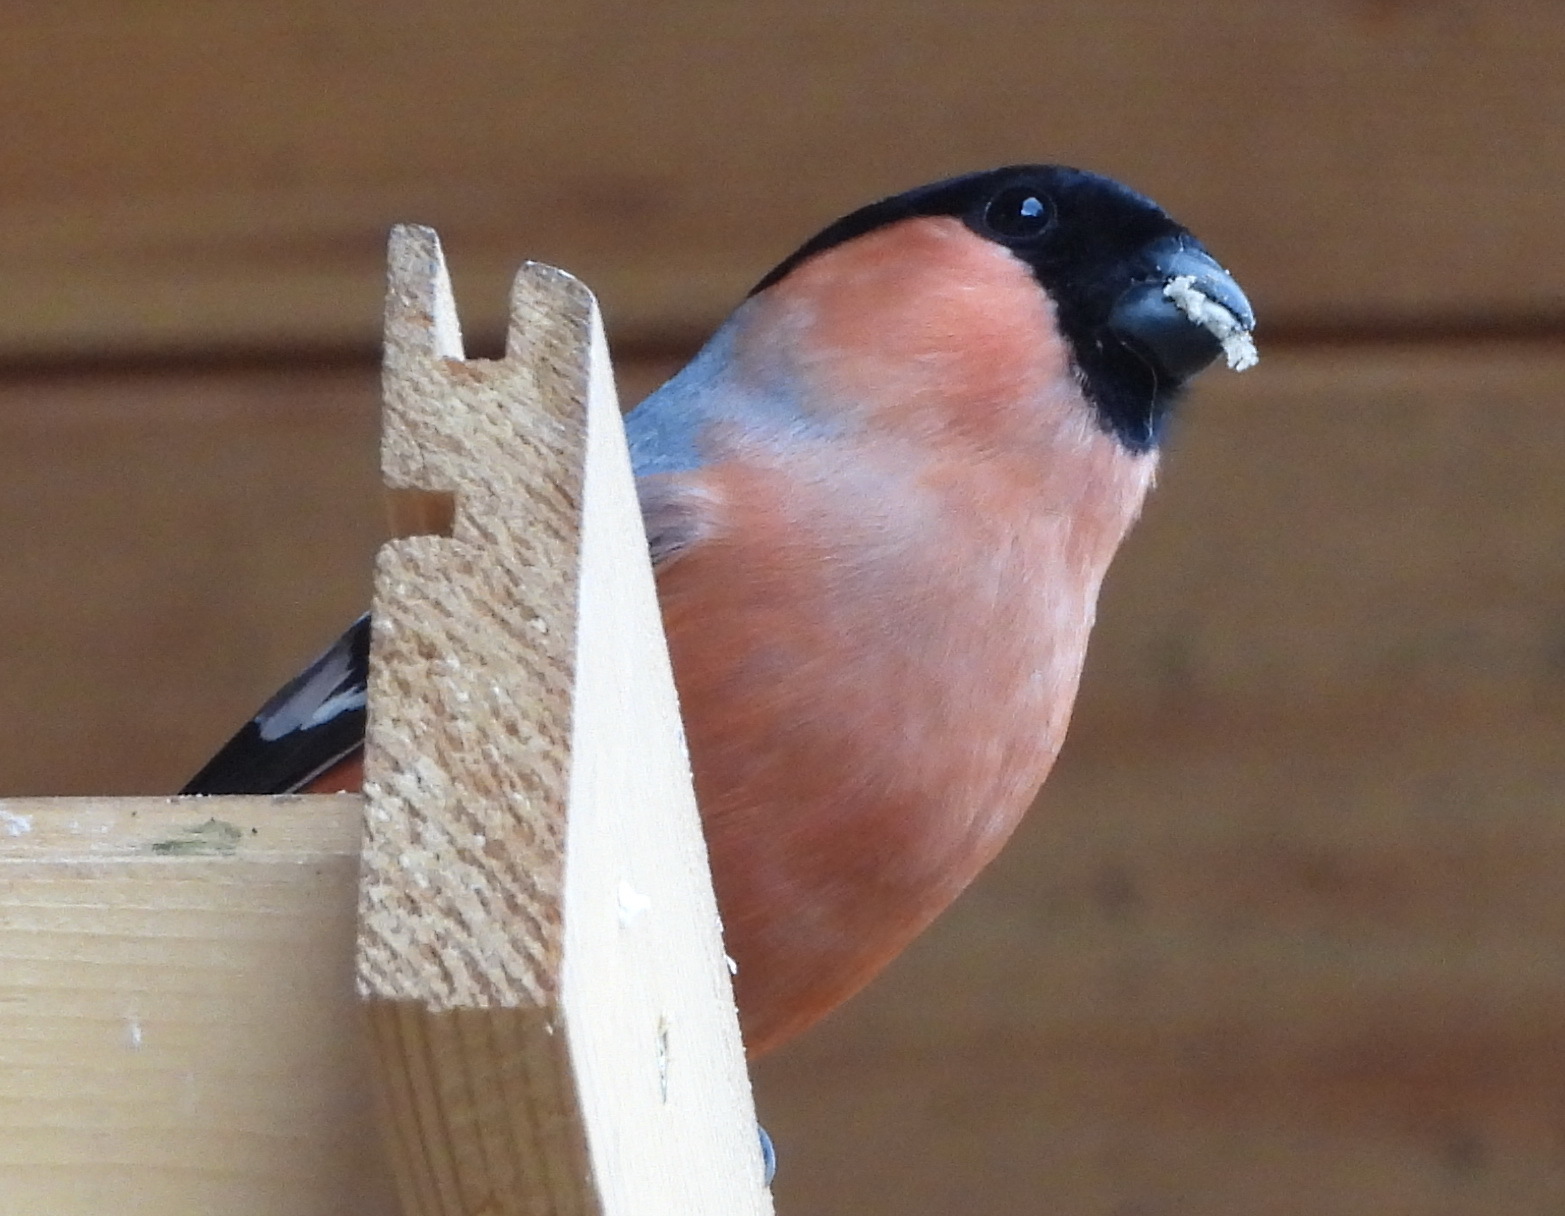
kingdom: Animalia
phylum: Chordata
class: Aves
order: Passeriformes
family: Fringillidae
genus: Pyrrhula
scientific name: Pyrrhula pyrrhula
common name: Eurasian bullfinch
